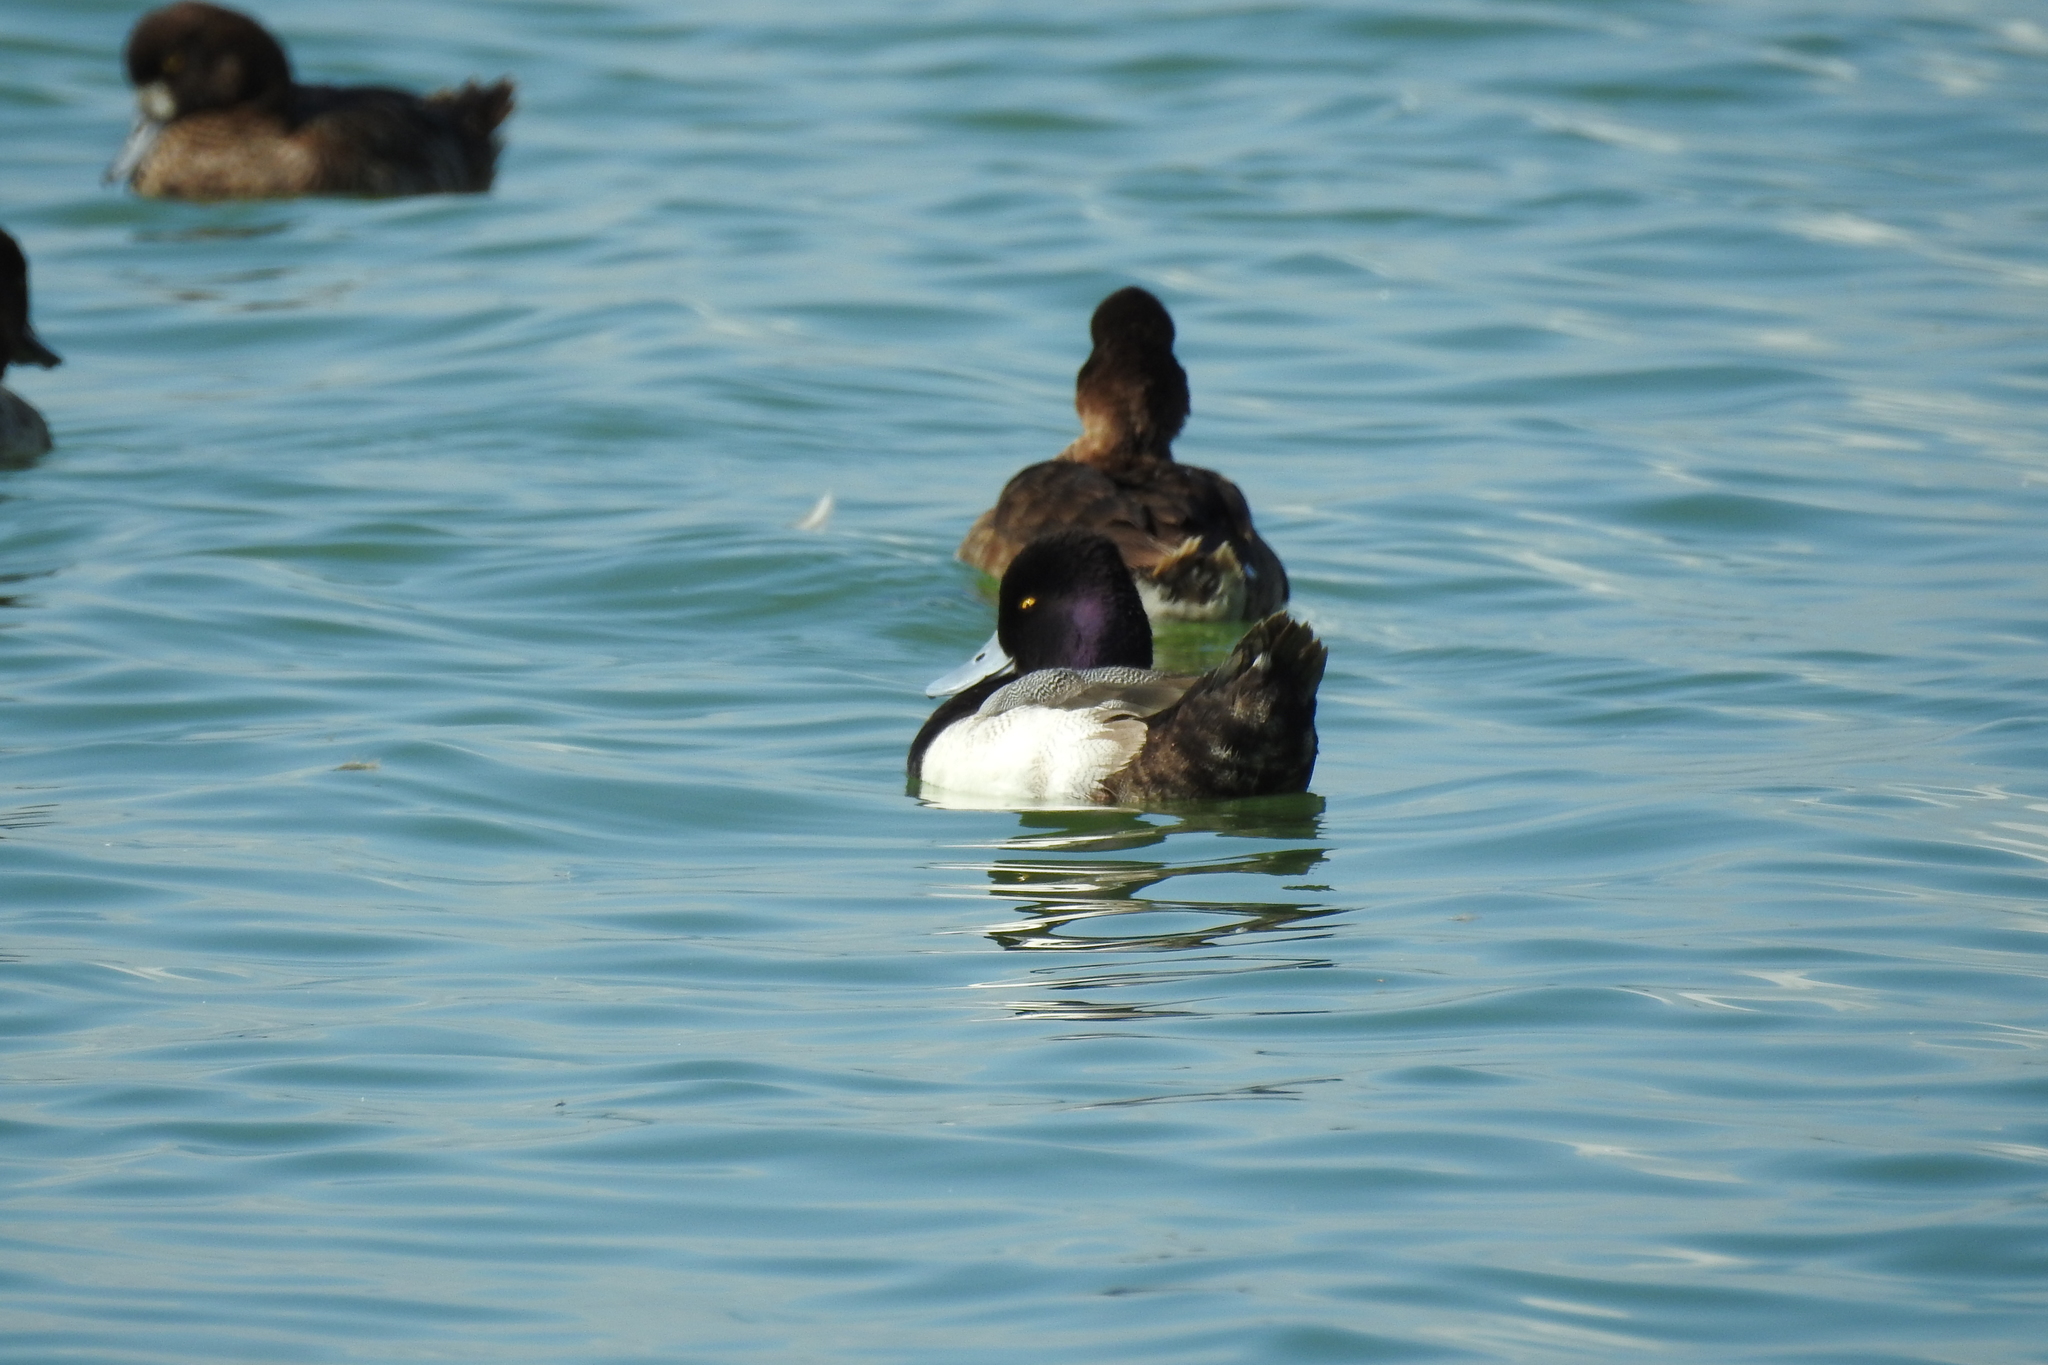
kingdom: Animalia
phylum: Chordata
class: Aves
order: Anseriformes
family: Anatidae
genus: Aythya
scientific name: Aythya affinis
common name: Lesser scaup
